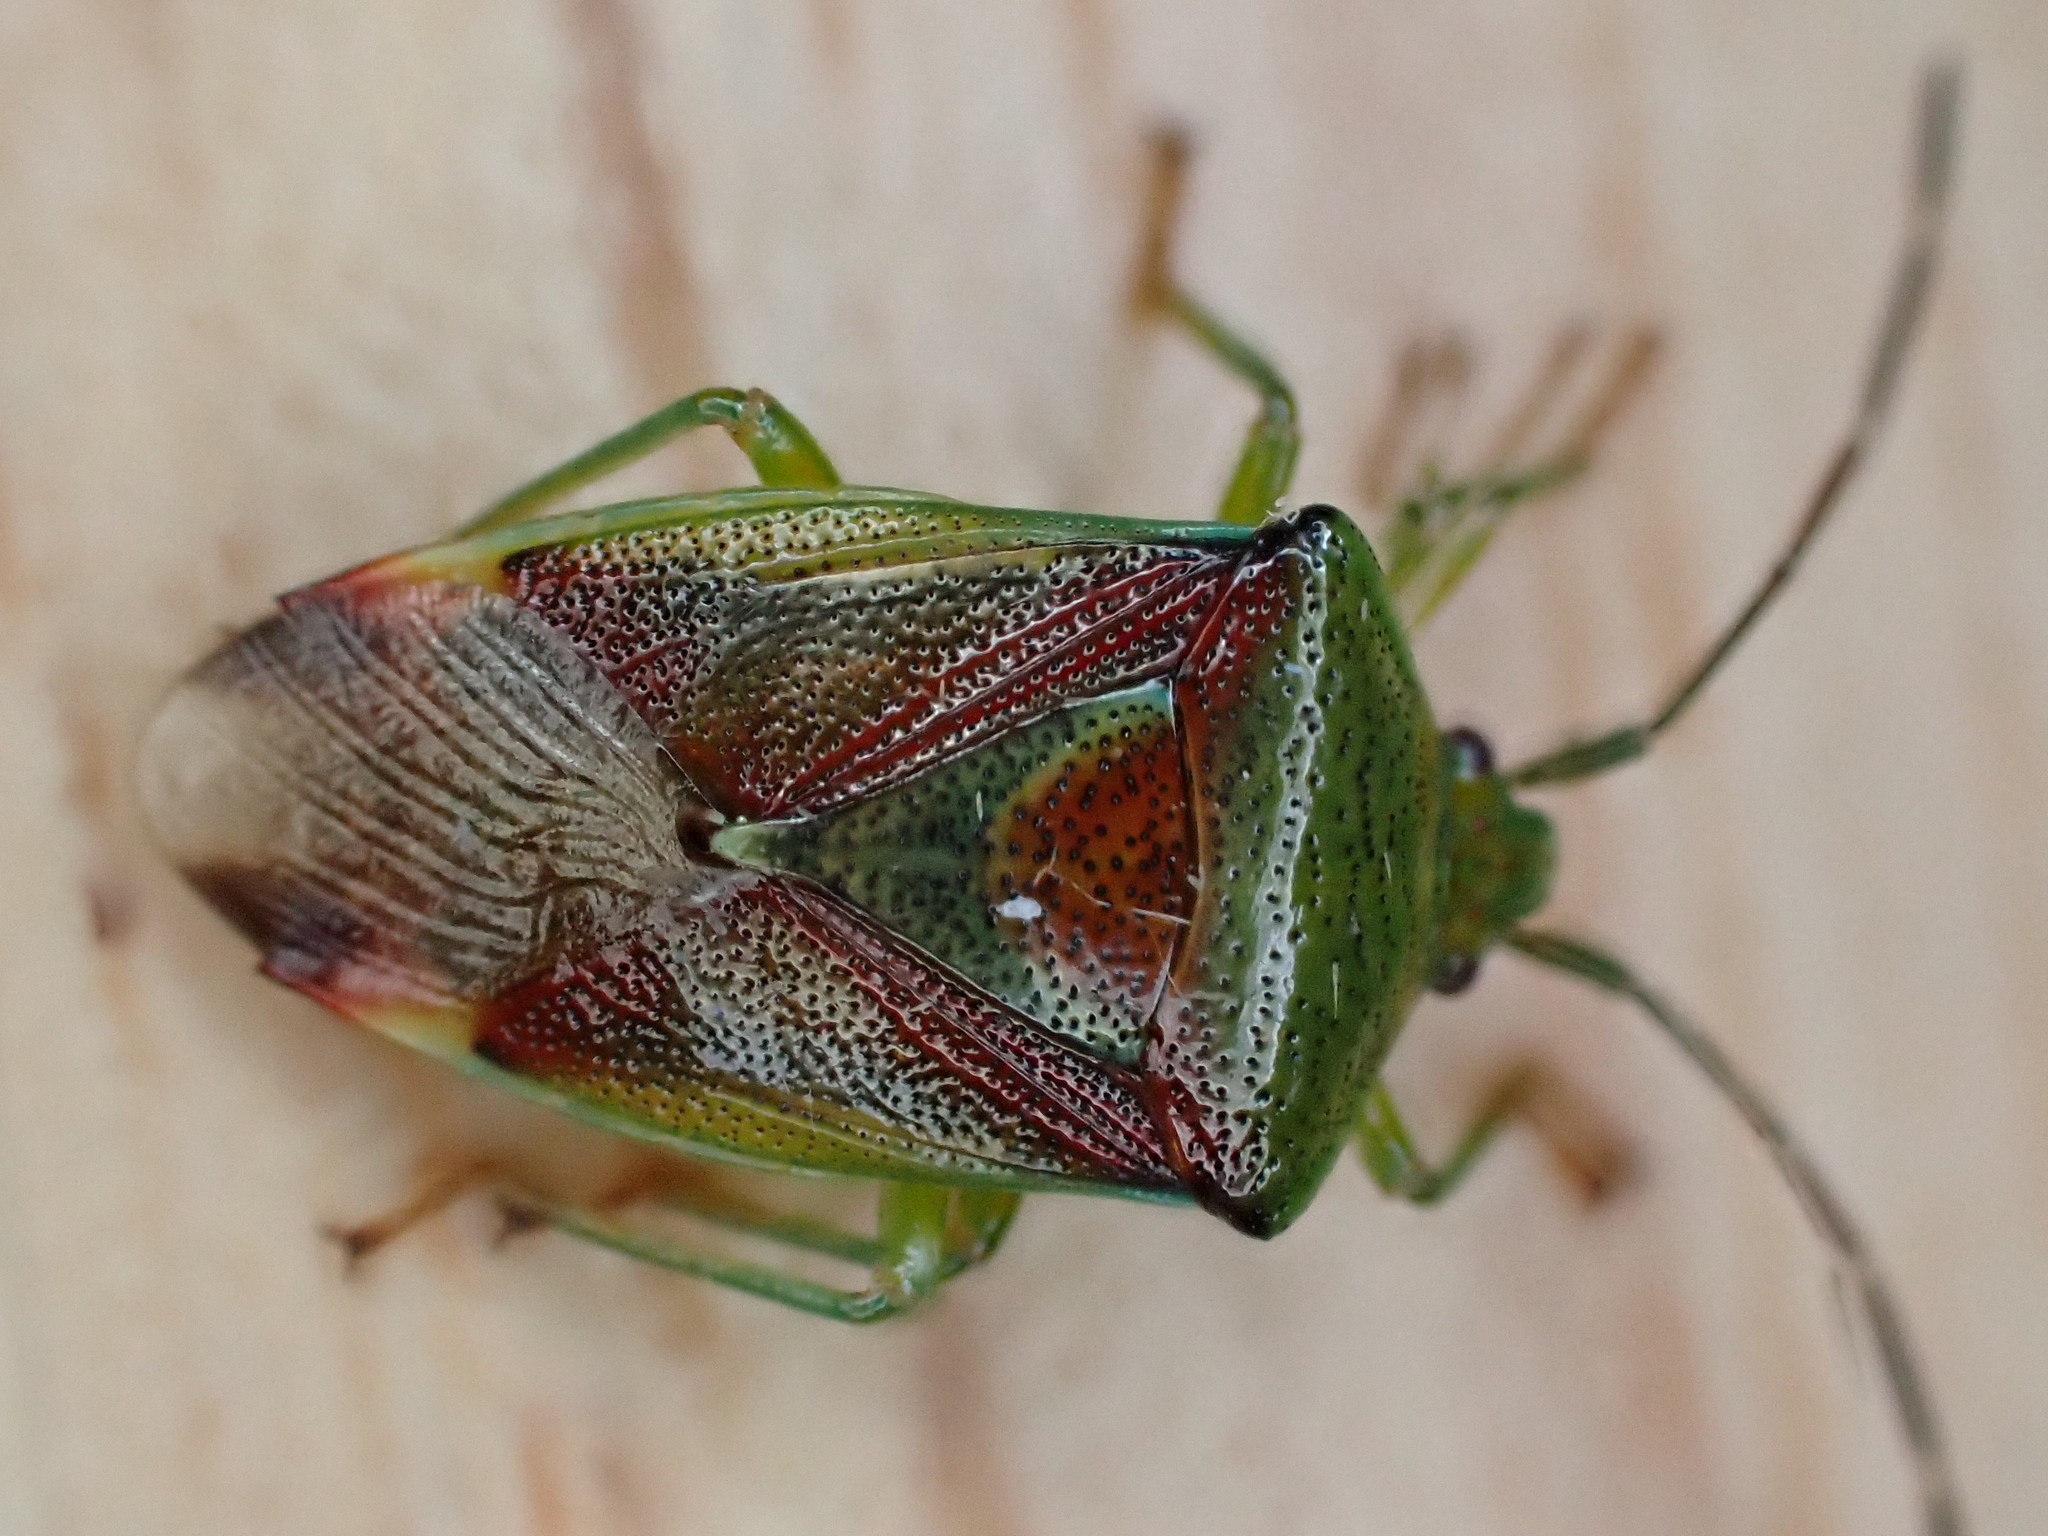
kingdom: Animalia
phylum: Arthropoda
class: Insecta
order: Hemiptera
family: Acanthosomatidae
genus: Elasmostethus
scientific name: Elasmostethus interstinctus
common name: Birch shieldbug
